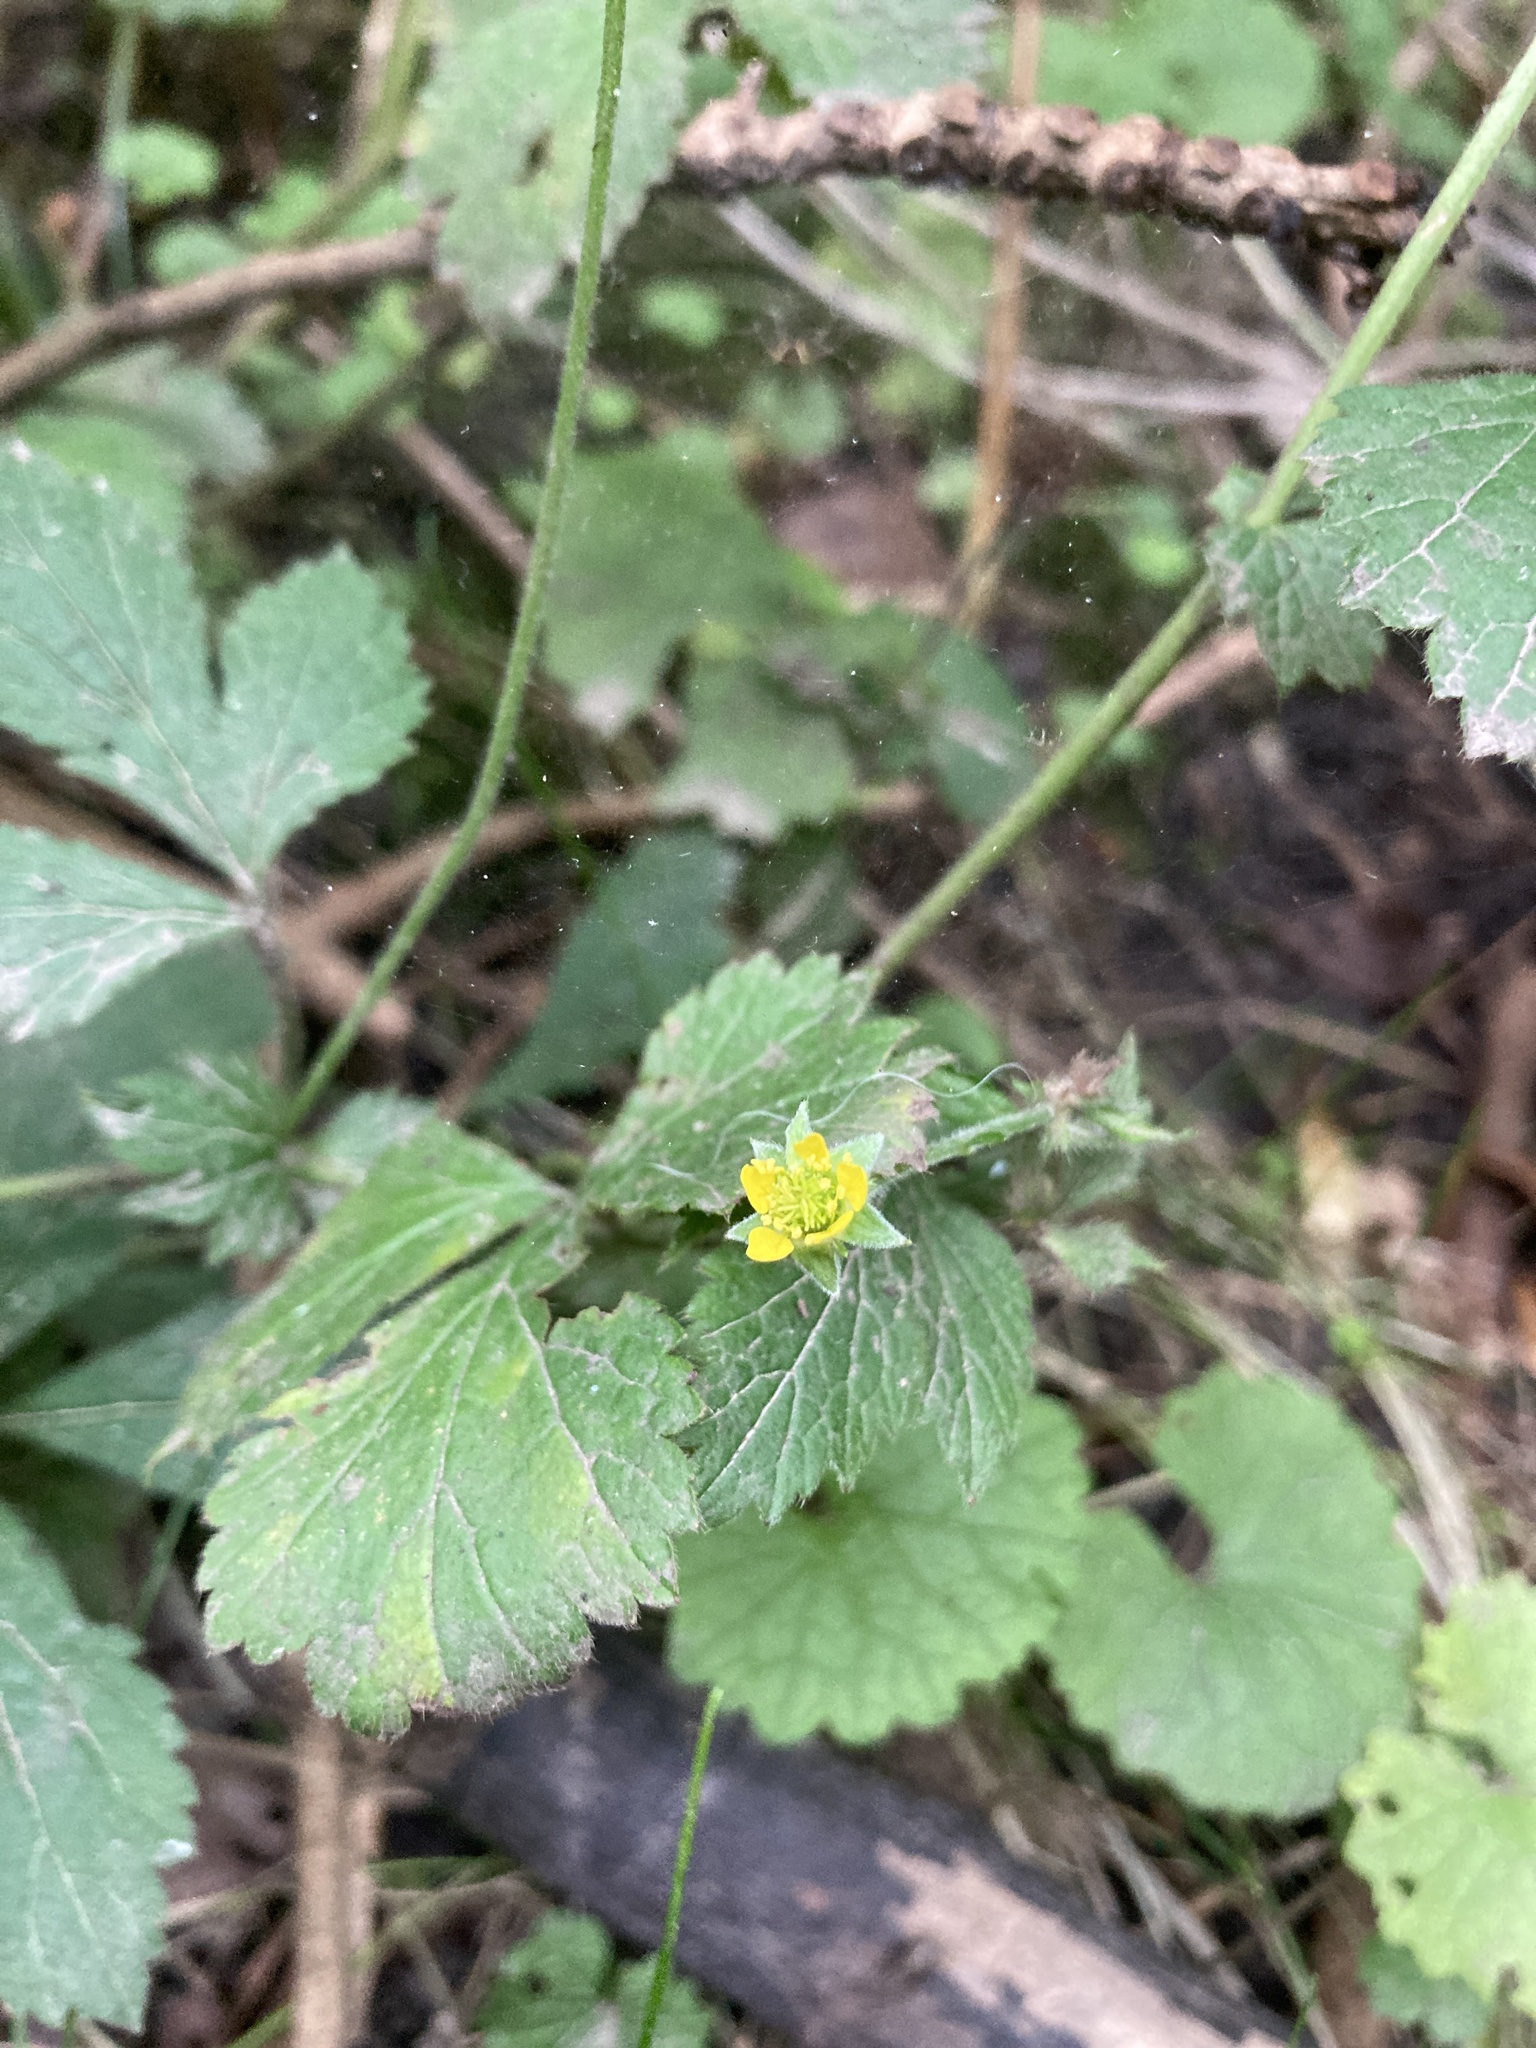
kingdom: Plantae
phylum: Tracheophyta
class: Magnoliopsida
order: Rosales
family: Rosaceae
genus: Geum
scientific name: Geum urbanum
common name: Wood avens
